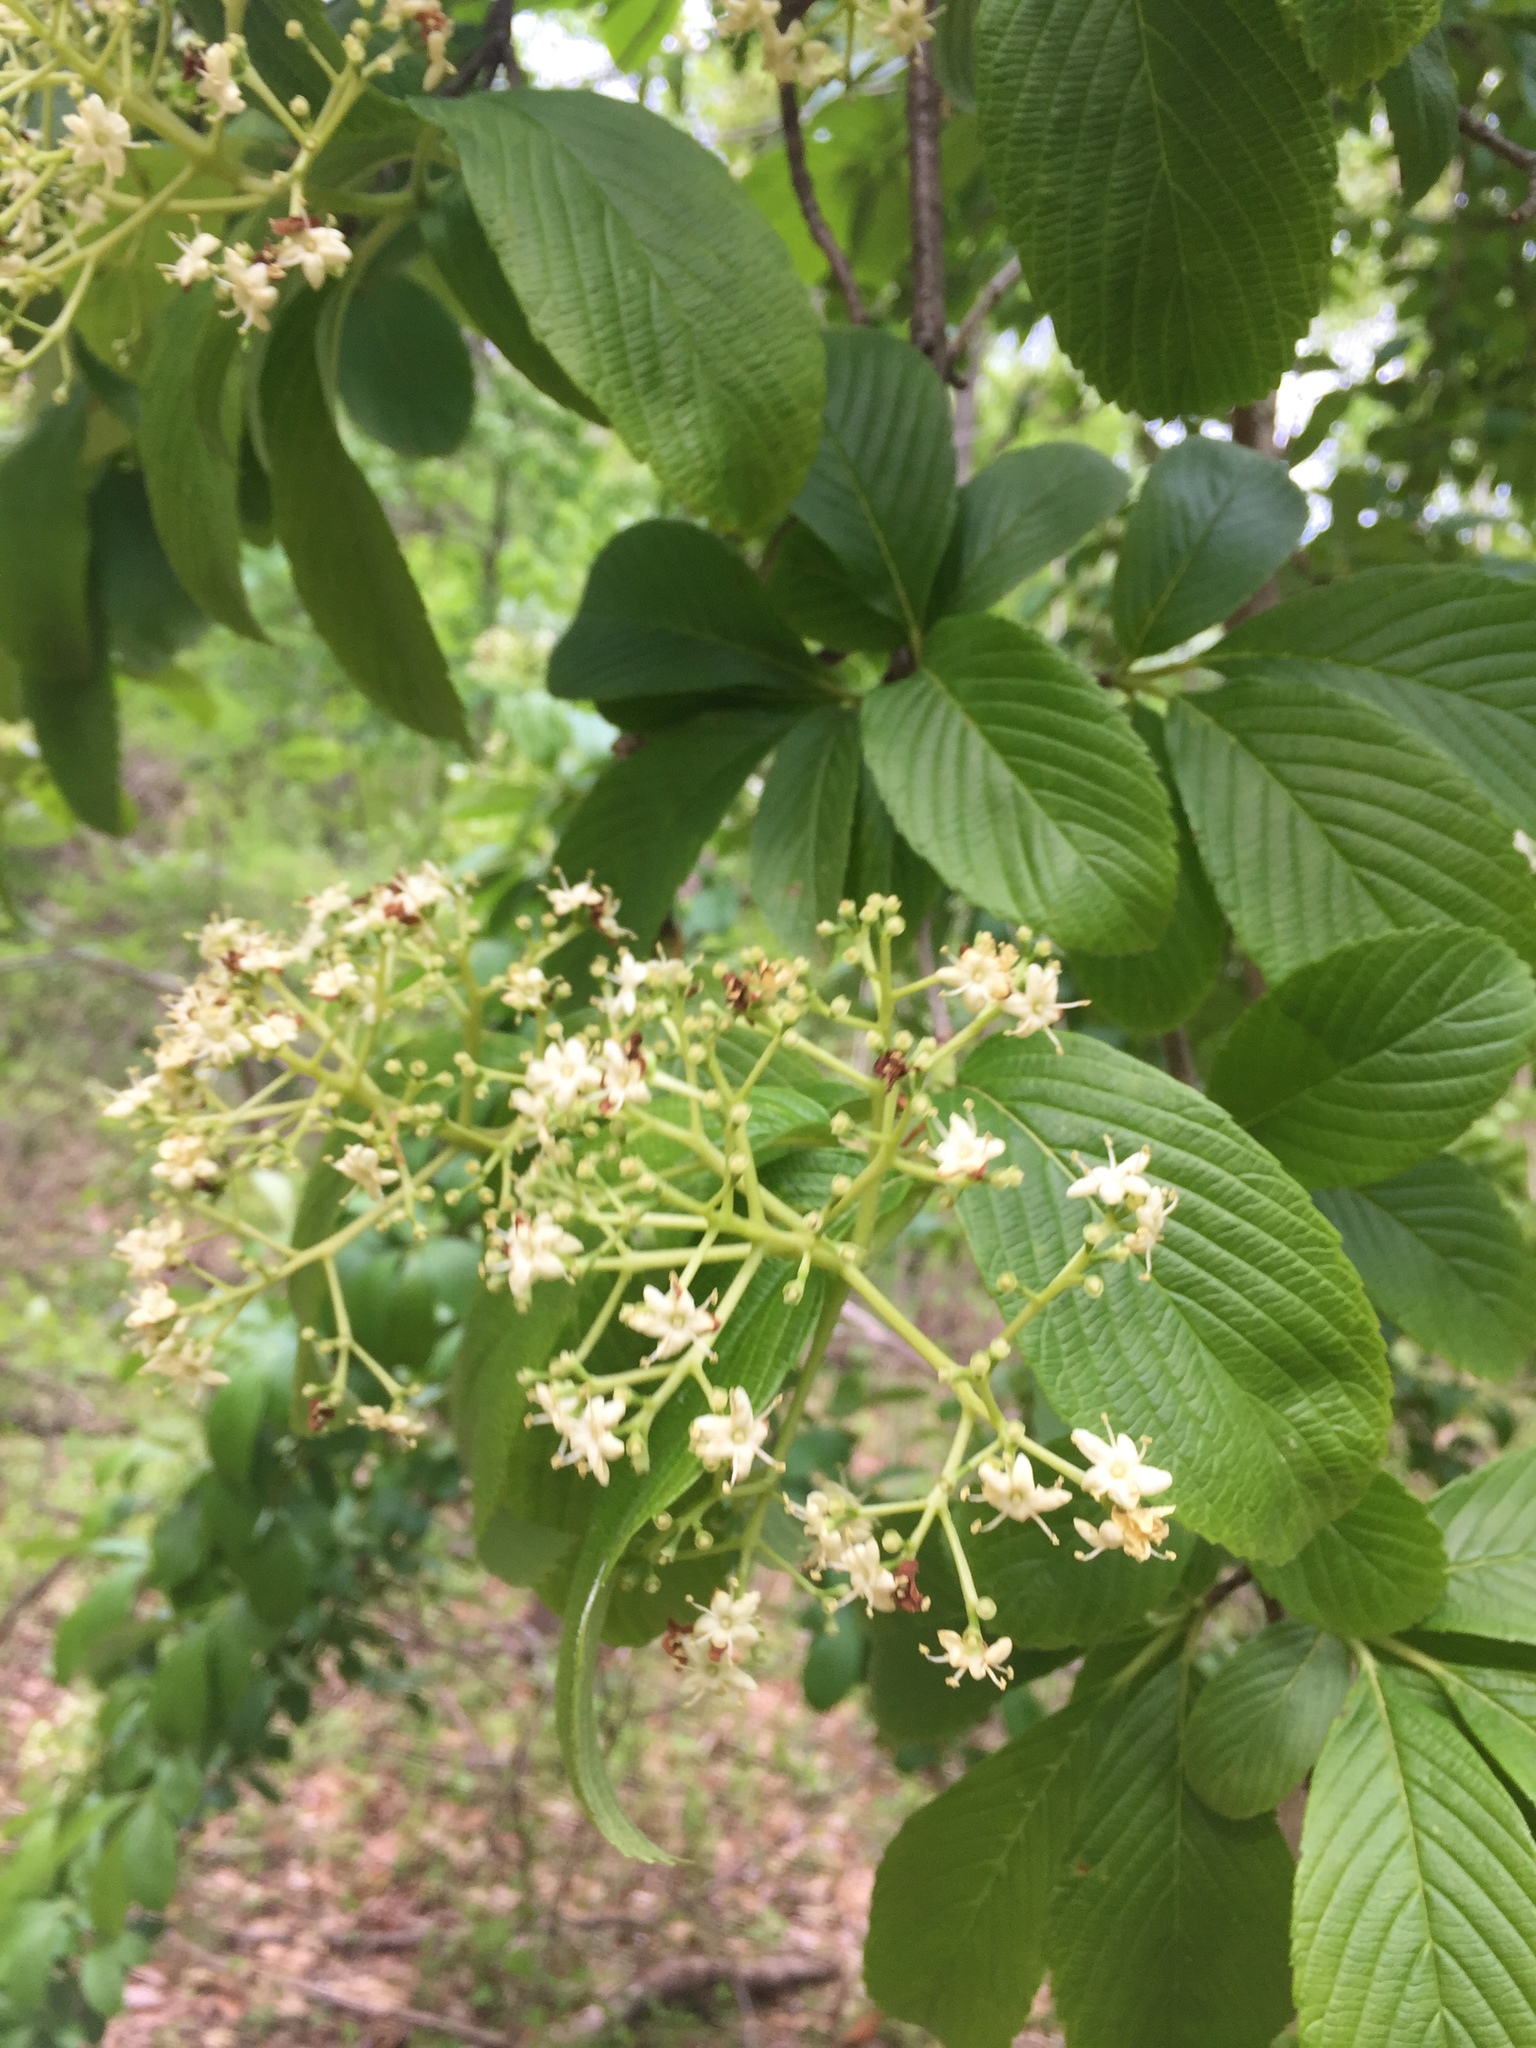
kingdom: Plantae
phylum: Tracheophyta
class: Magnoliopsida
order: Dipsacales
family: Viburnaceae
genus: Viburnum
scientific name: Viburnum sieboldii
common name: Siebold's arrowwood
